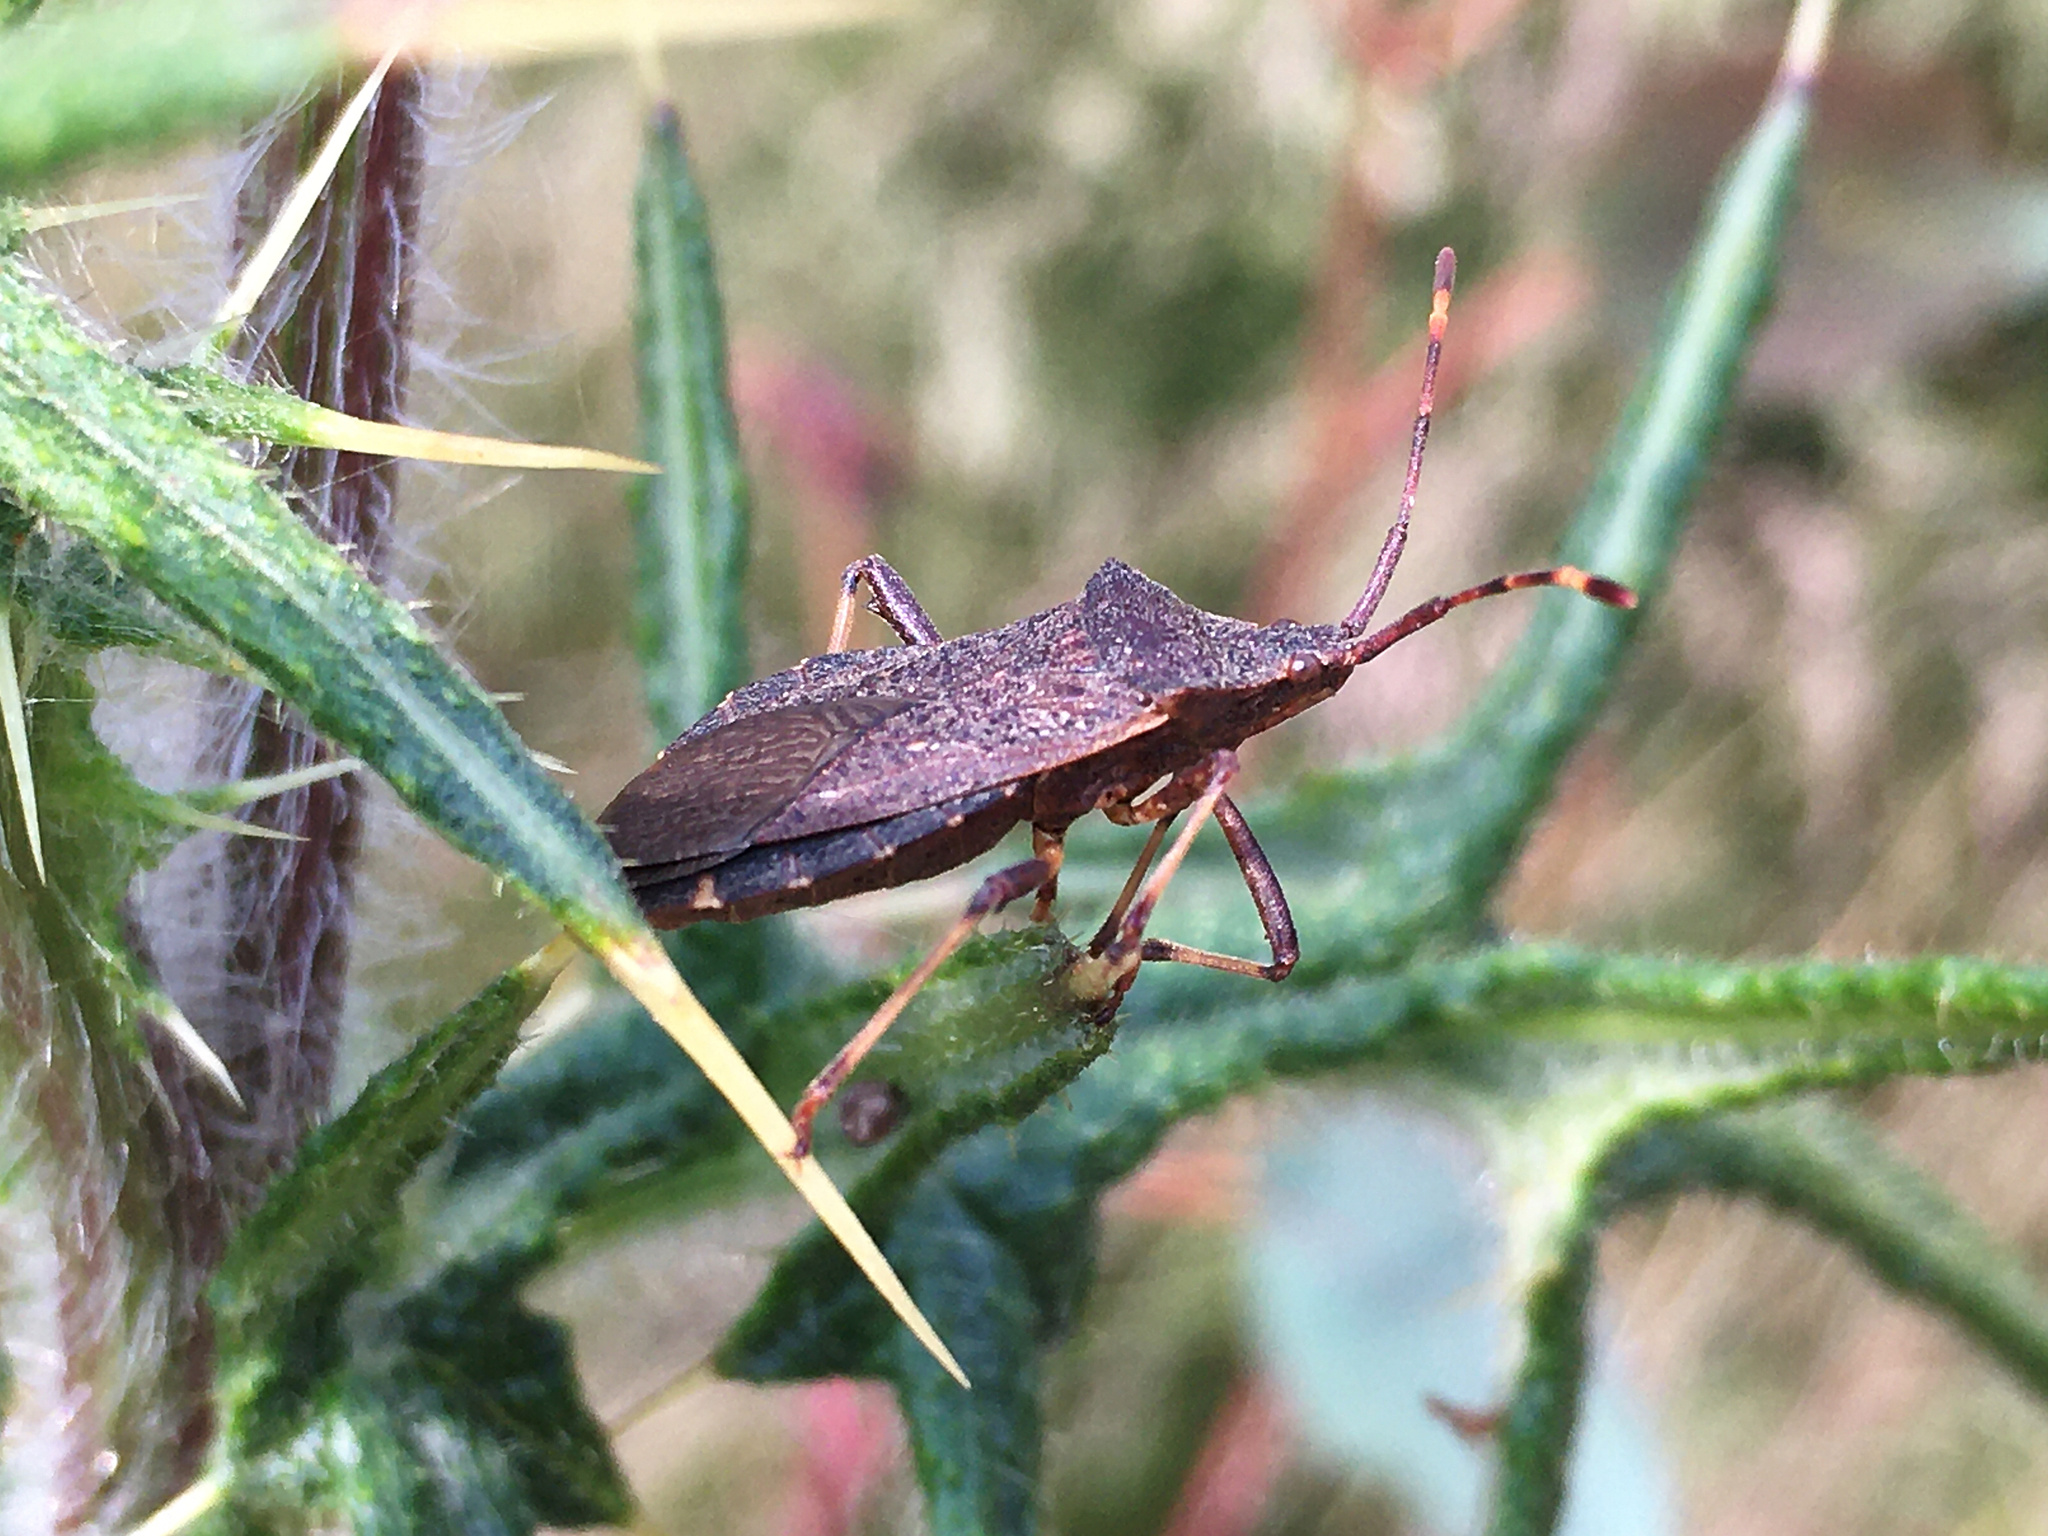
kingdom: Animalia
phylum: Arthropoda
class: Insecta
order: Hemiptera
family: Coreidae
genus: Gelonus
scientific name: Gelonus tasmanicus
